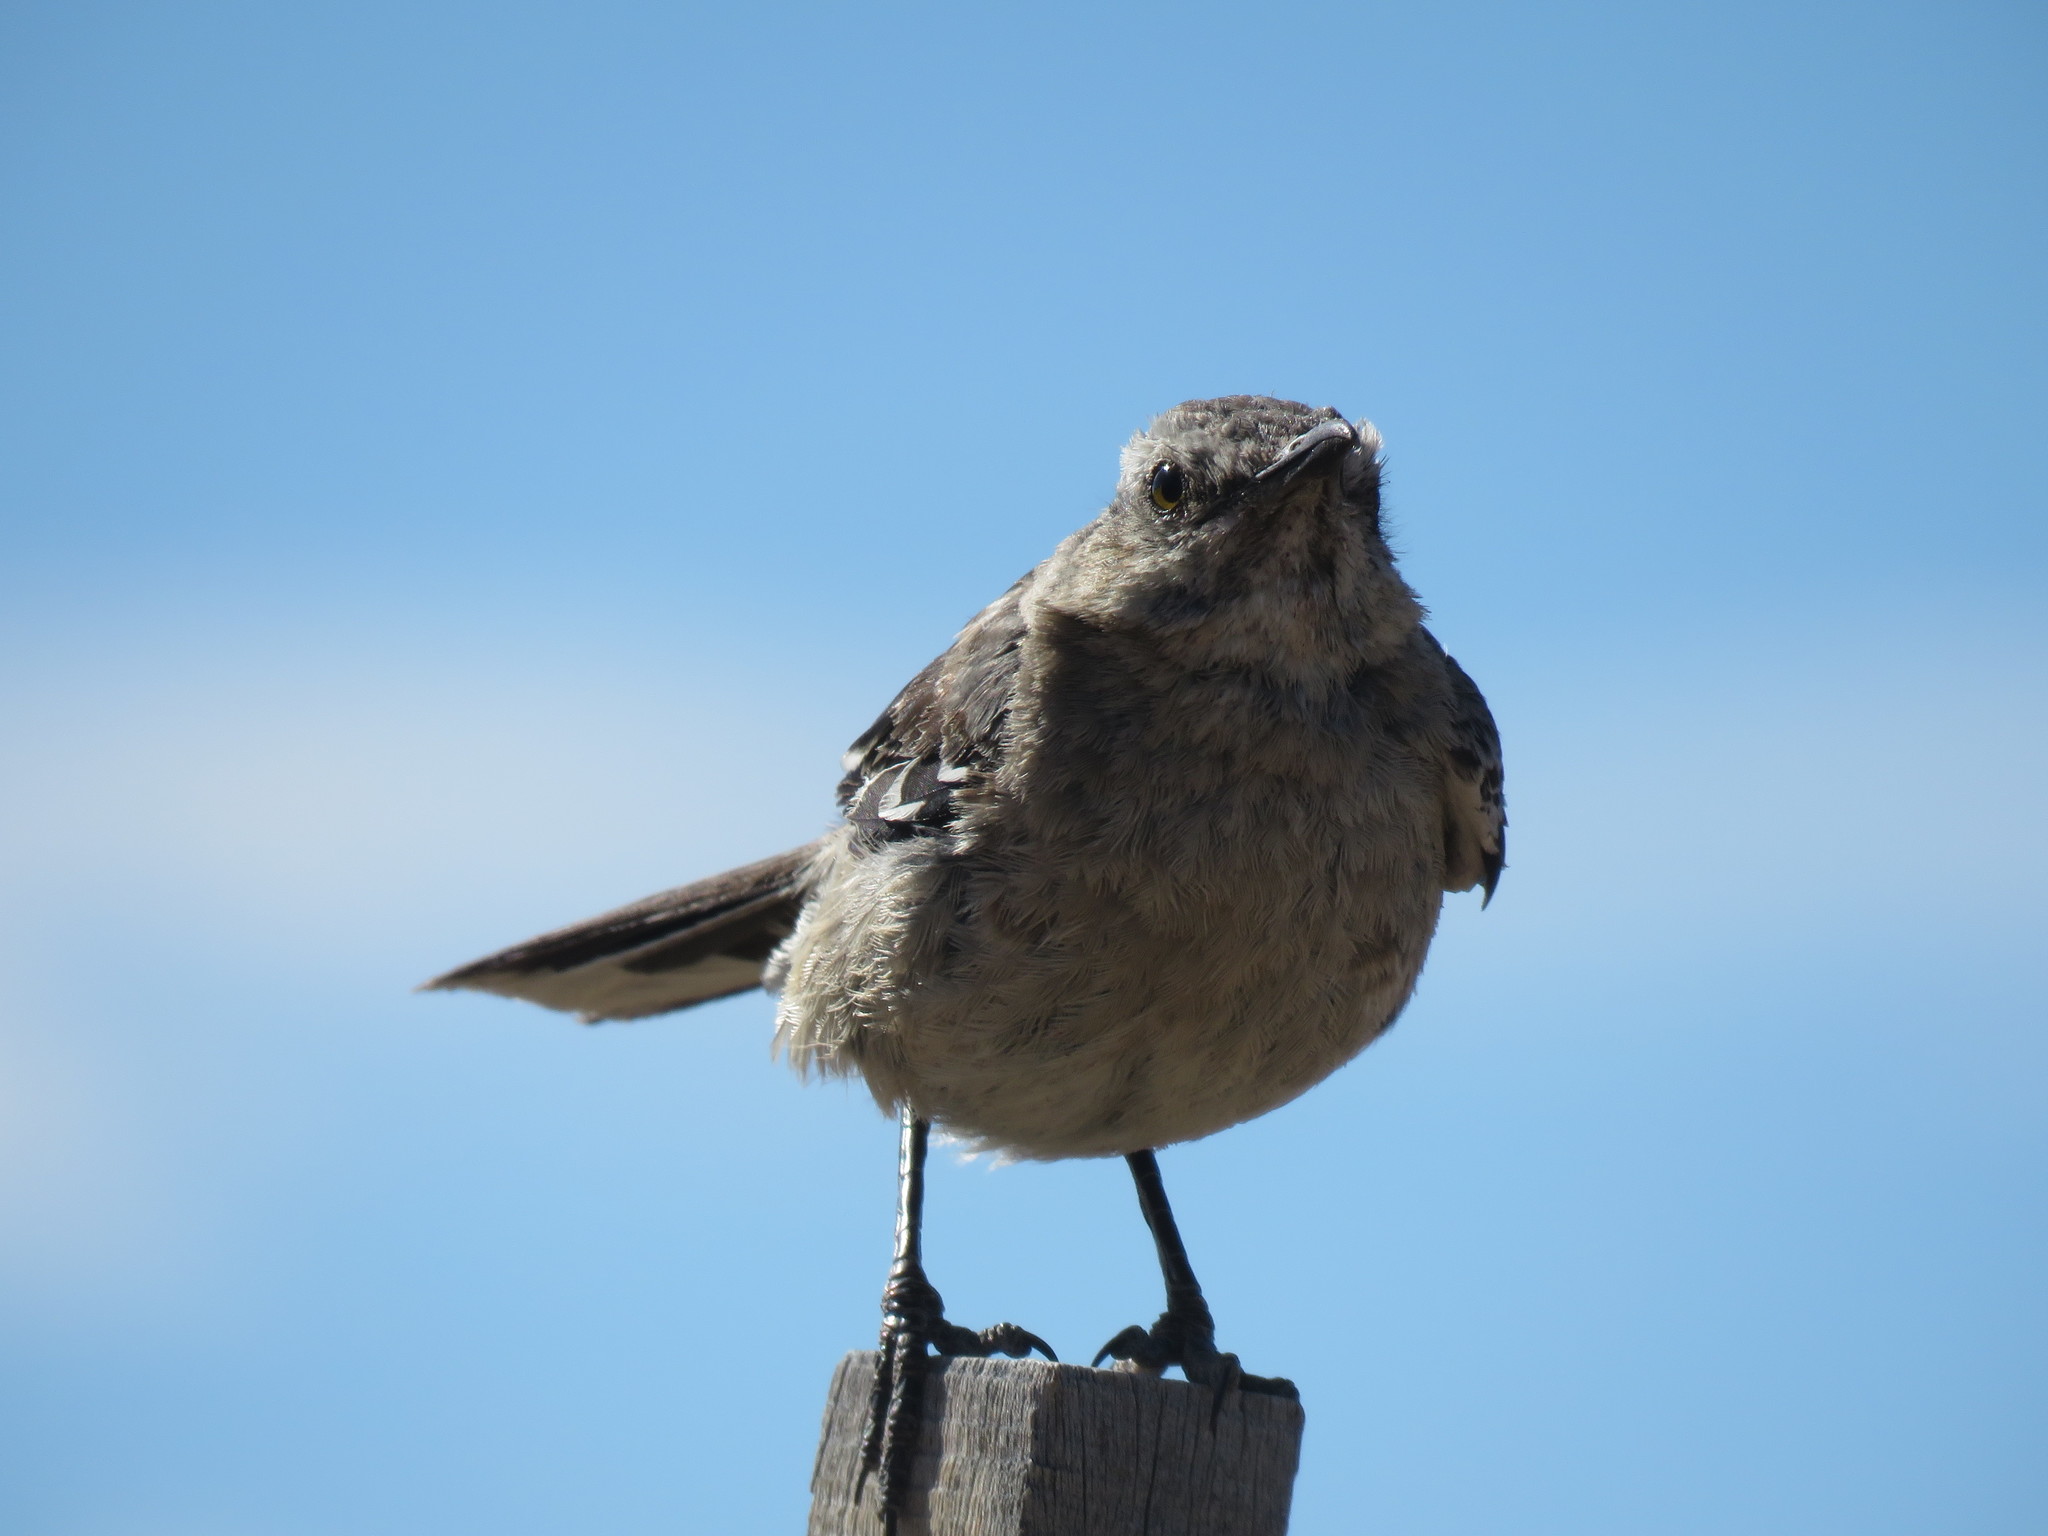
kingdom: Animalia
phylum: Chordata
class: Aves
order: Passeriformes
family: Mimidae
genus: Mimus
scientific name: Mimus patagonicus
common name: Patagonian mockingbird
